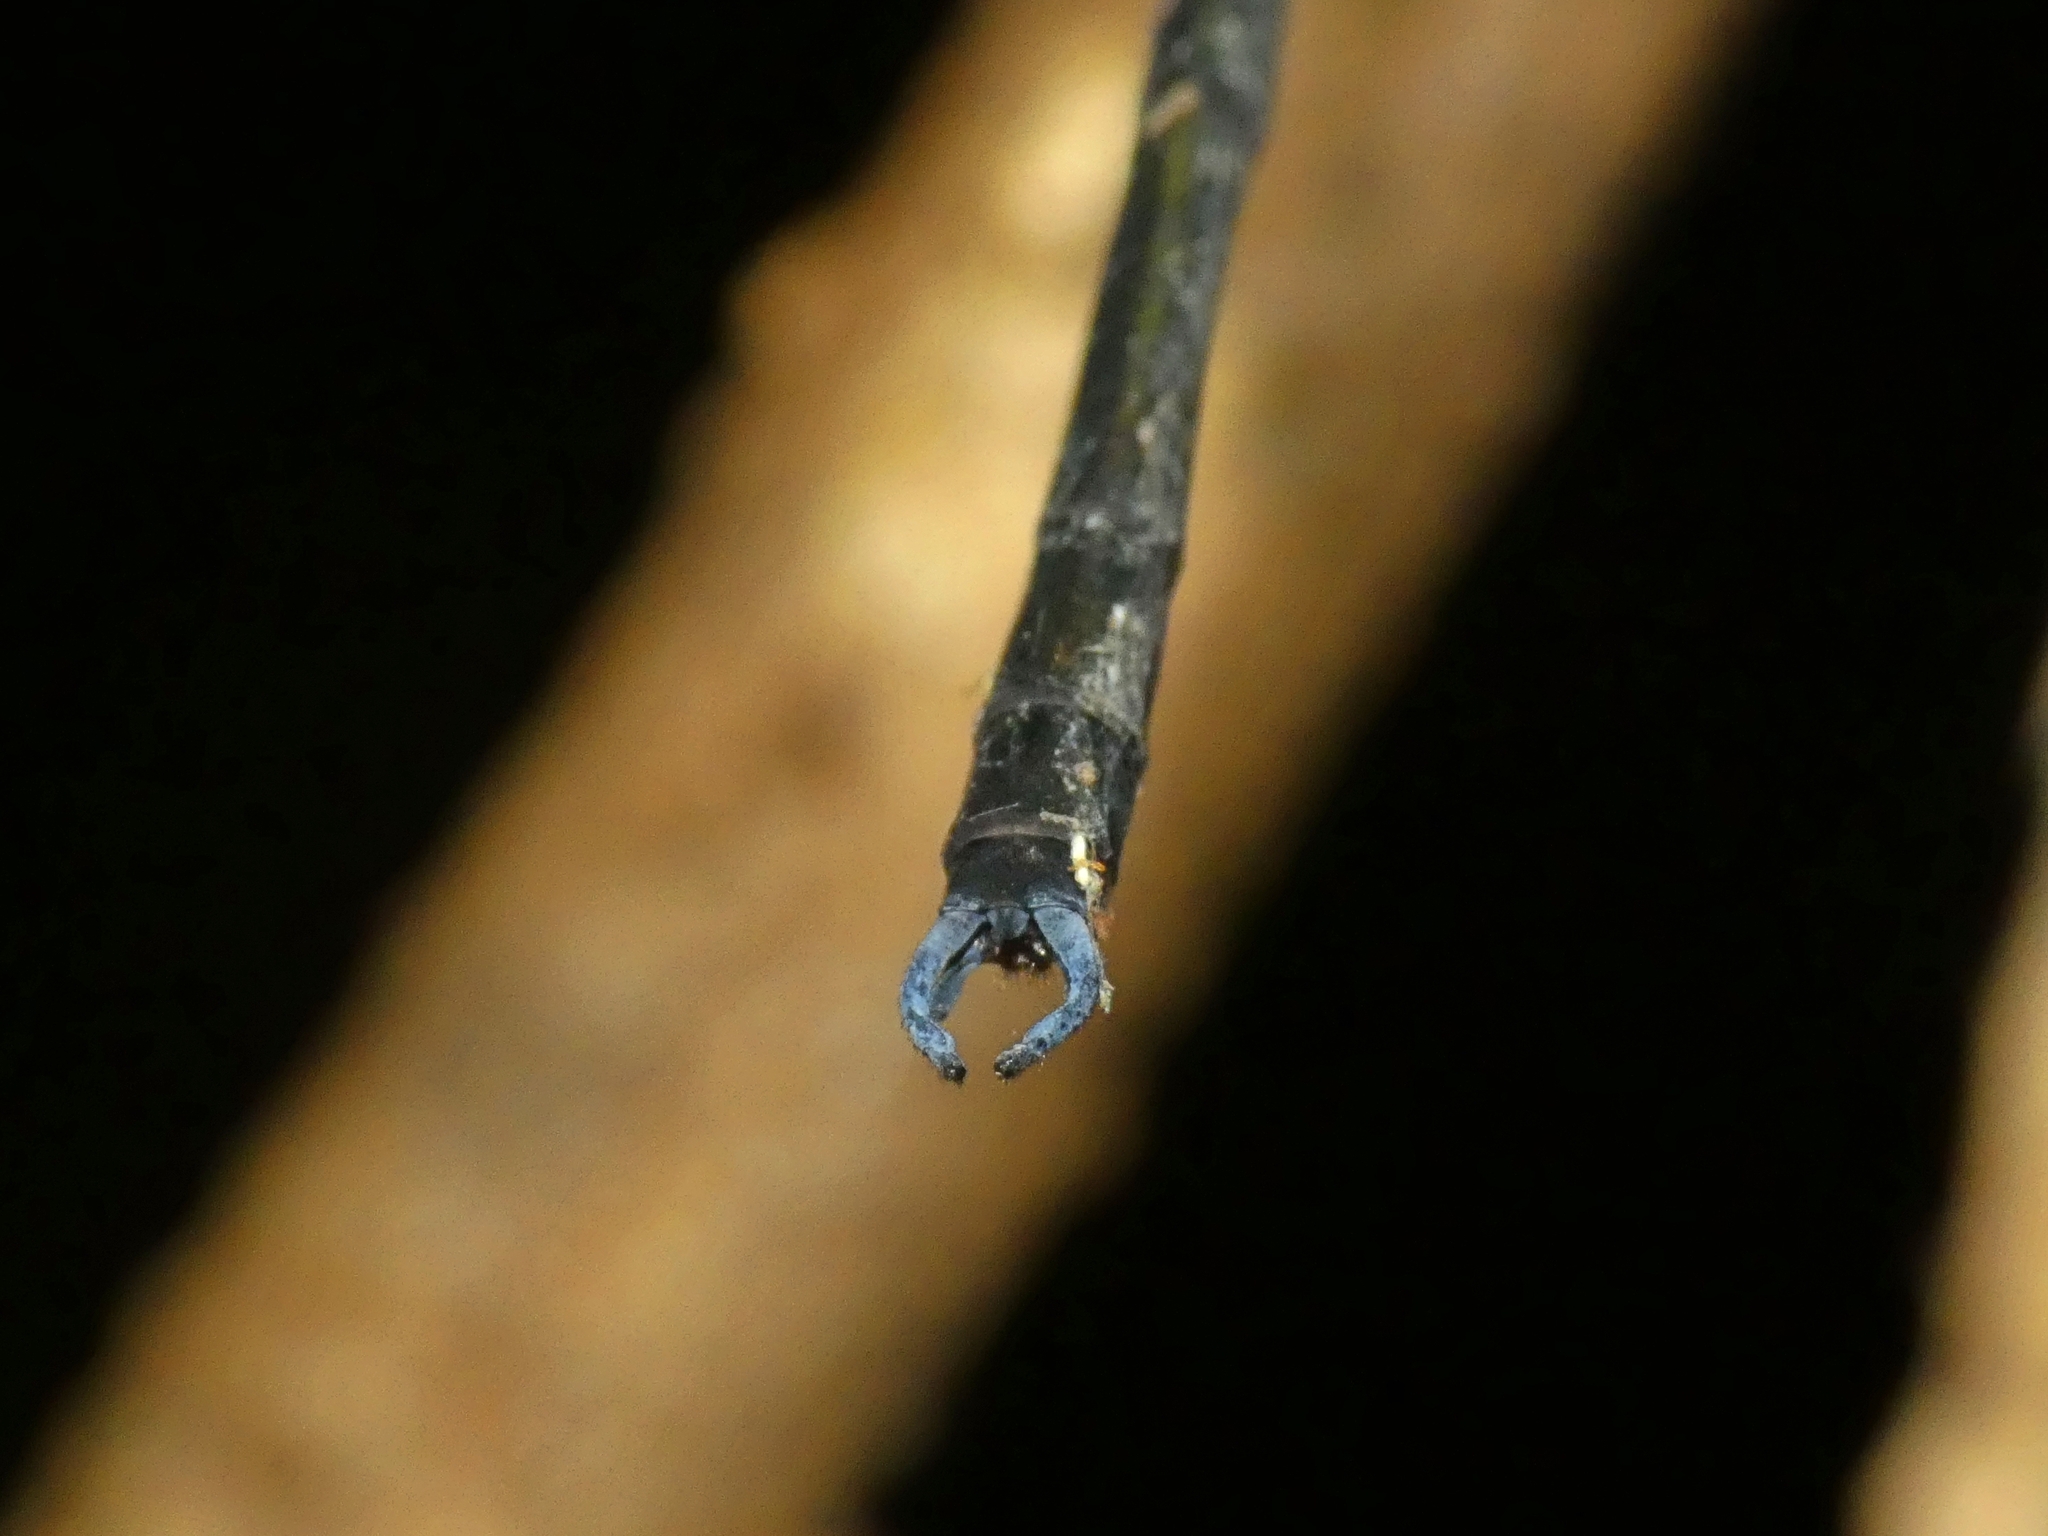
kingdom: Animalia
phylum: Arthropoda
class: Insecta
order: Odonata
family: Argiolestidae
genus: Podopteryx
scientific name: Podopteryx selysi
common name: Treehole flatwing
